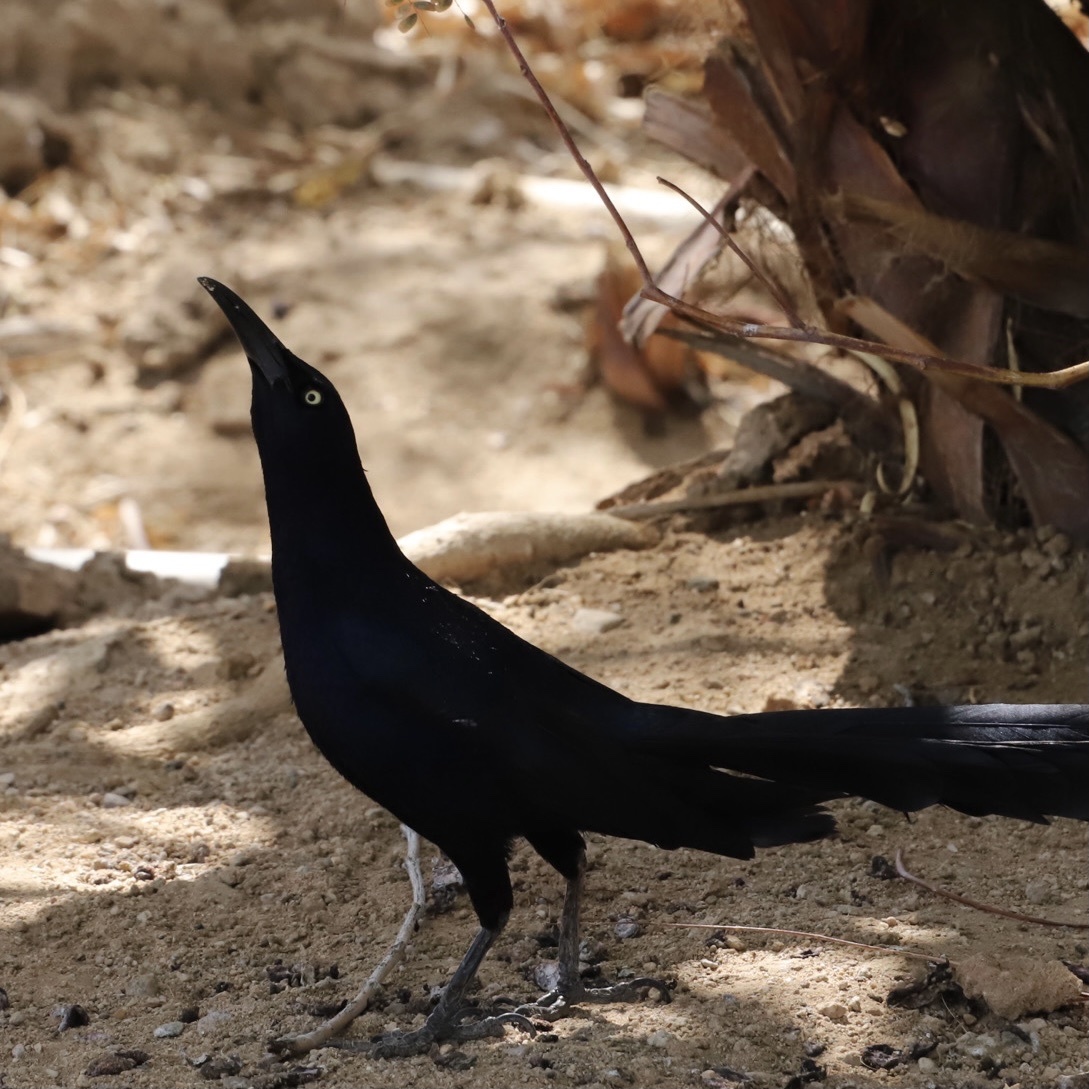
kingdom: Animalia
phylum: Chordata
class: Aves
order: Passeriformes
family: Icteridae
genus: Quiscalus
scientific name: Quiscalus mexicanus
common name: Great-tailed grackle
